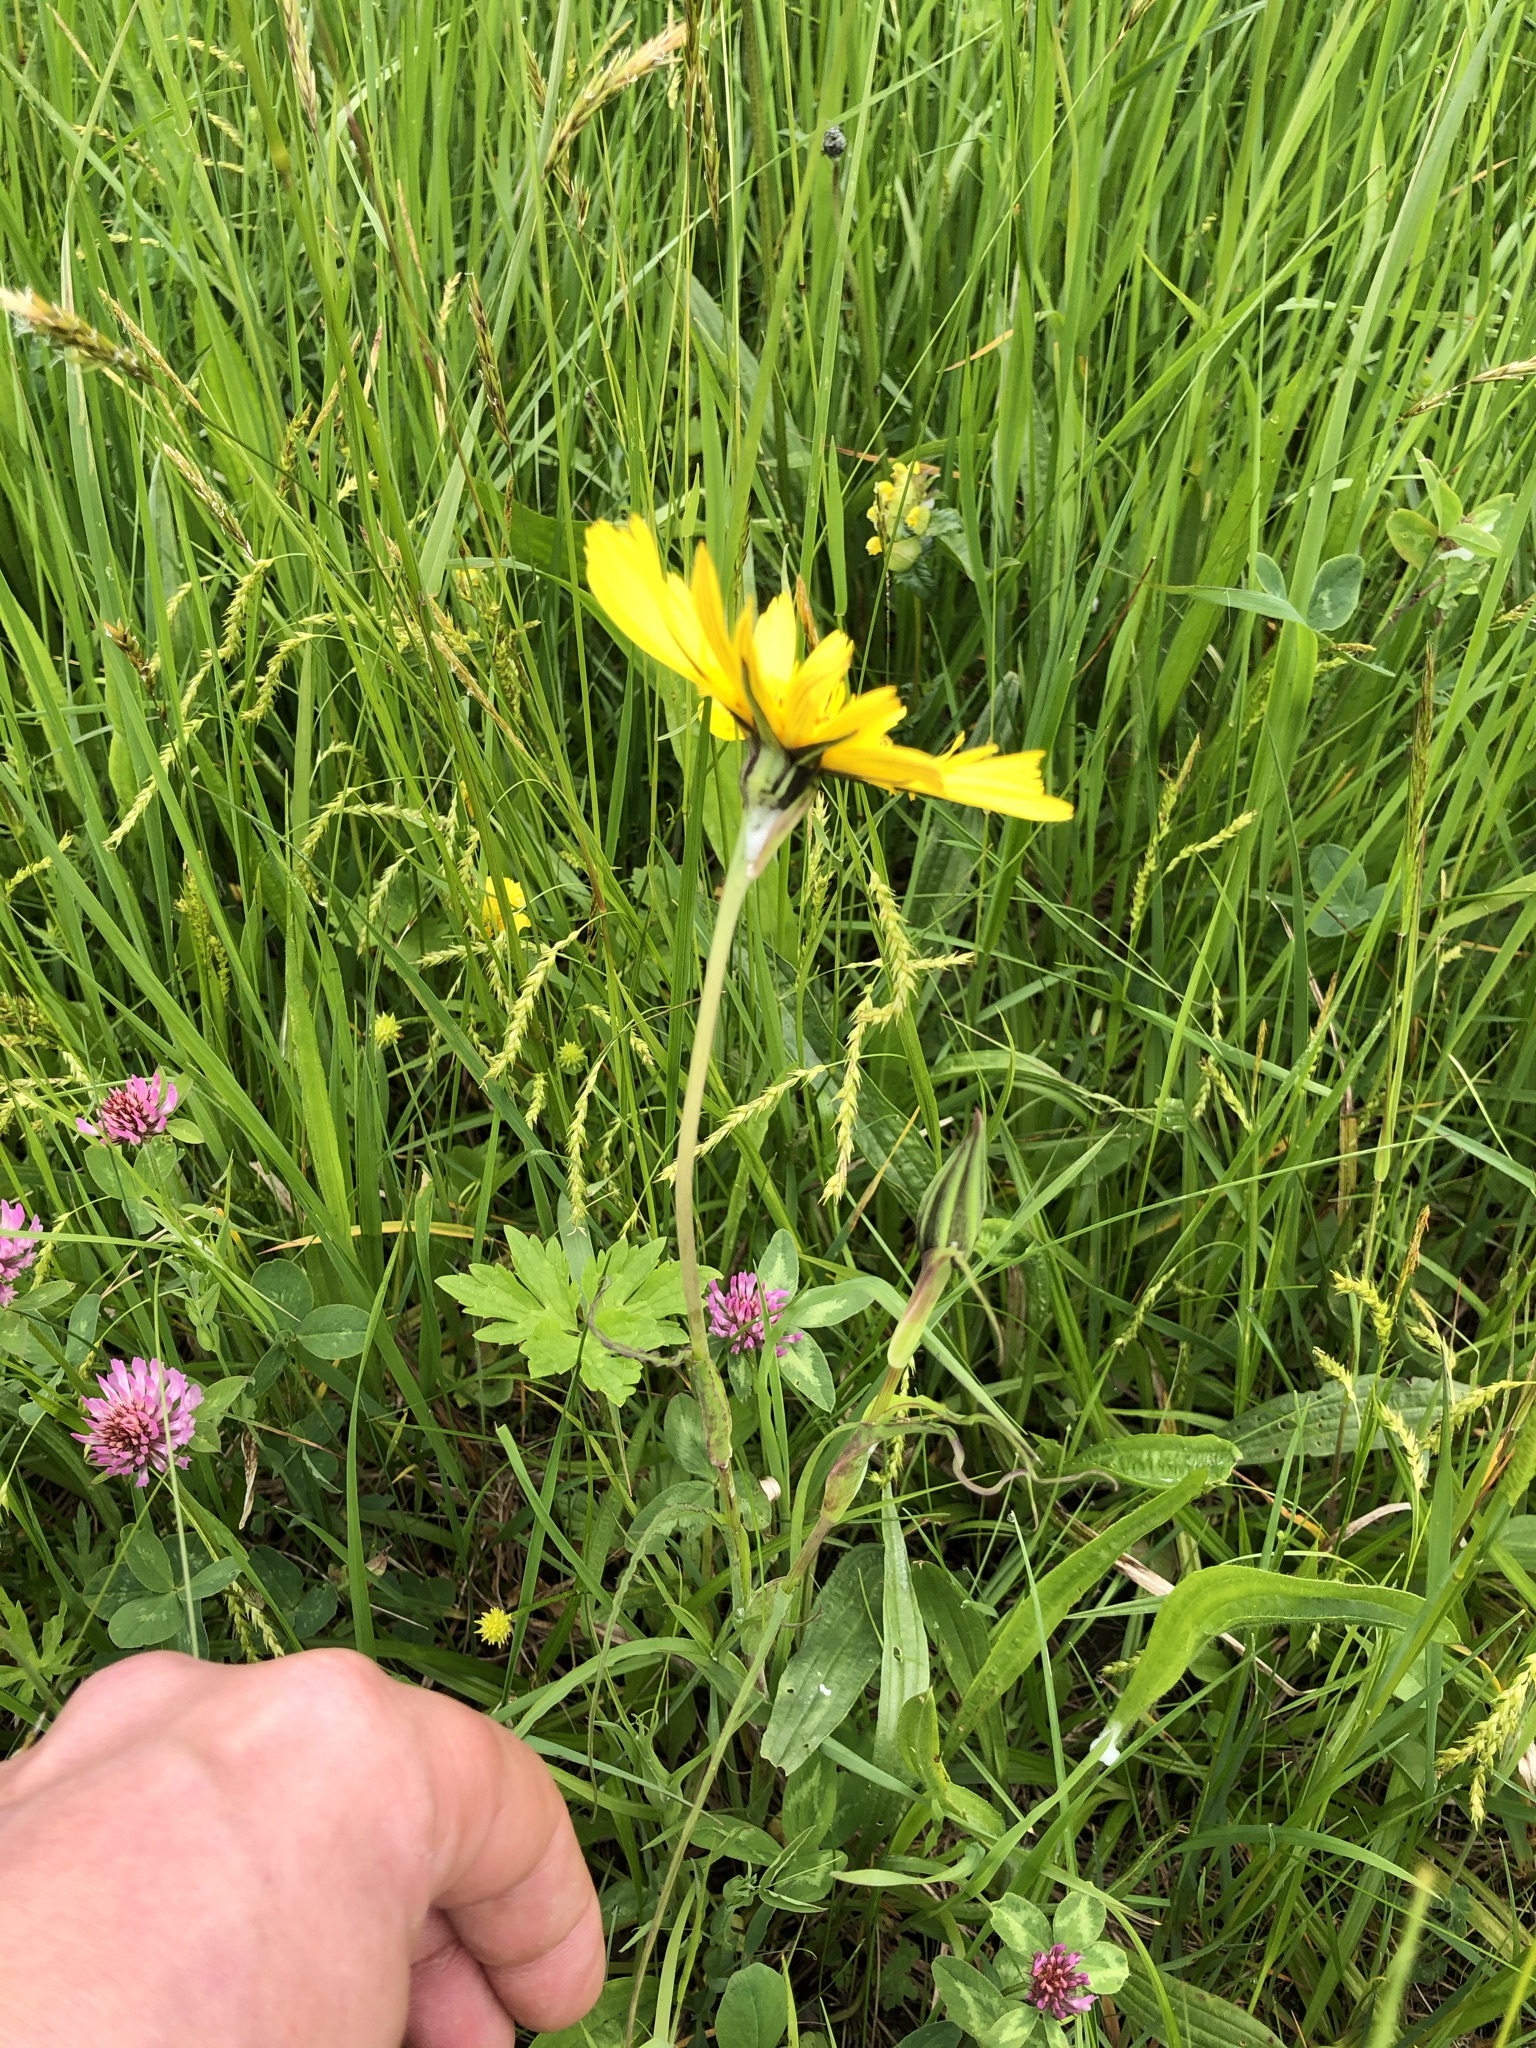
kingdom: Plantae
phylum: Tracheophyta
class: Magnoliopsida
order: Asterales
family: Asteraceae
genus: Tragopogon
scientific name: Tragopogon orientalis
